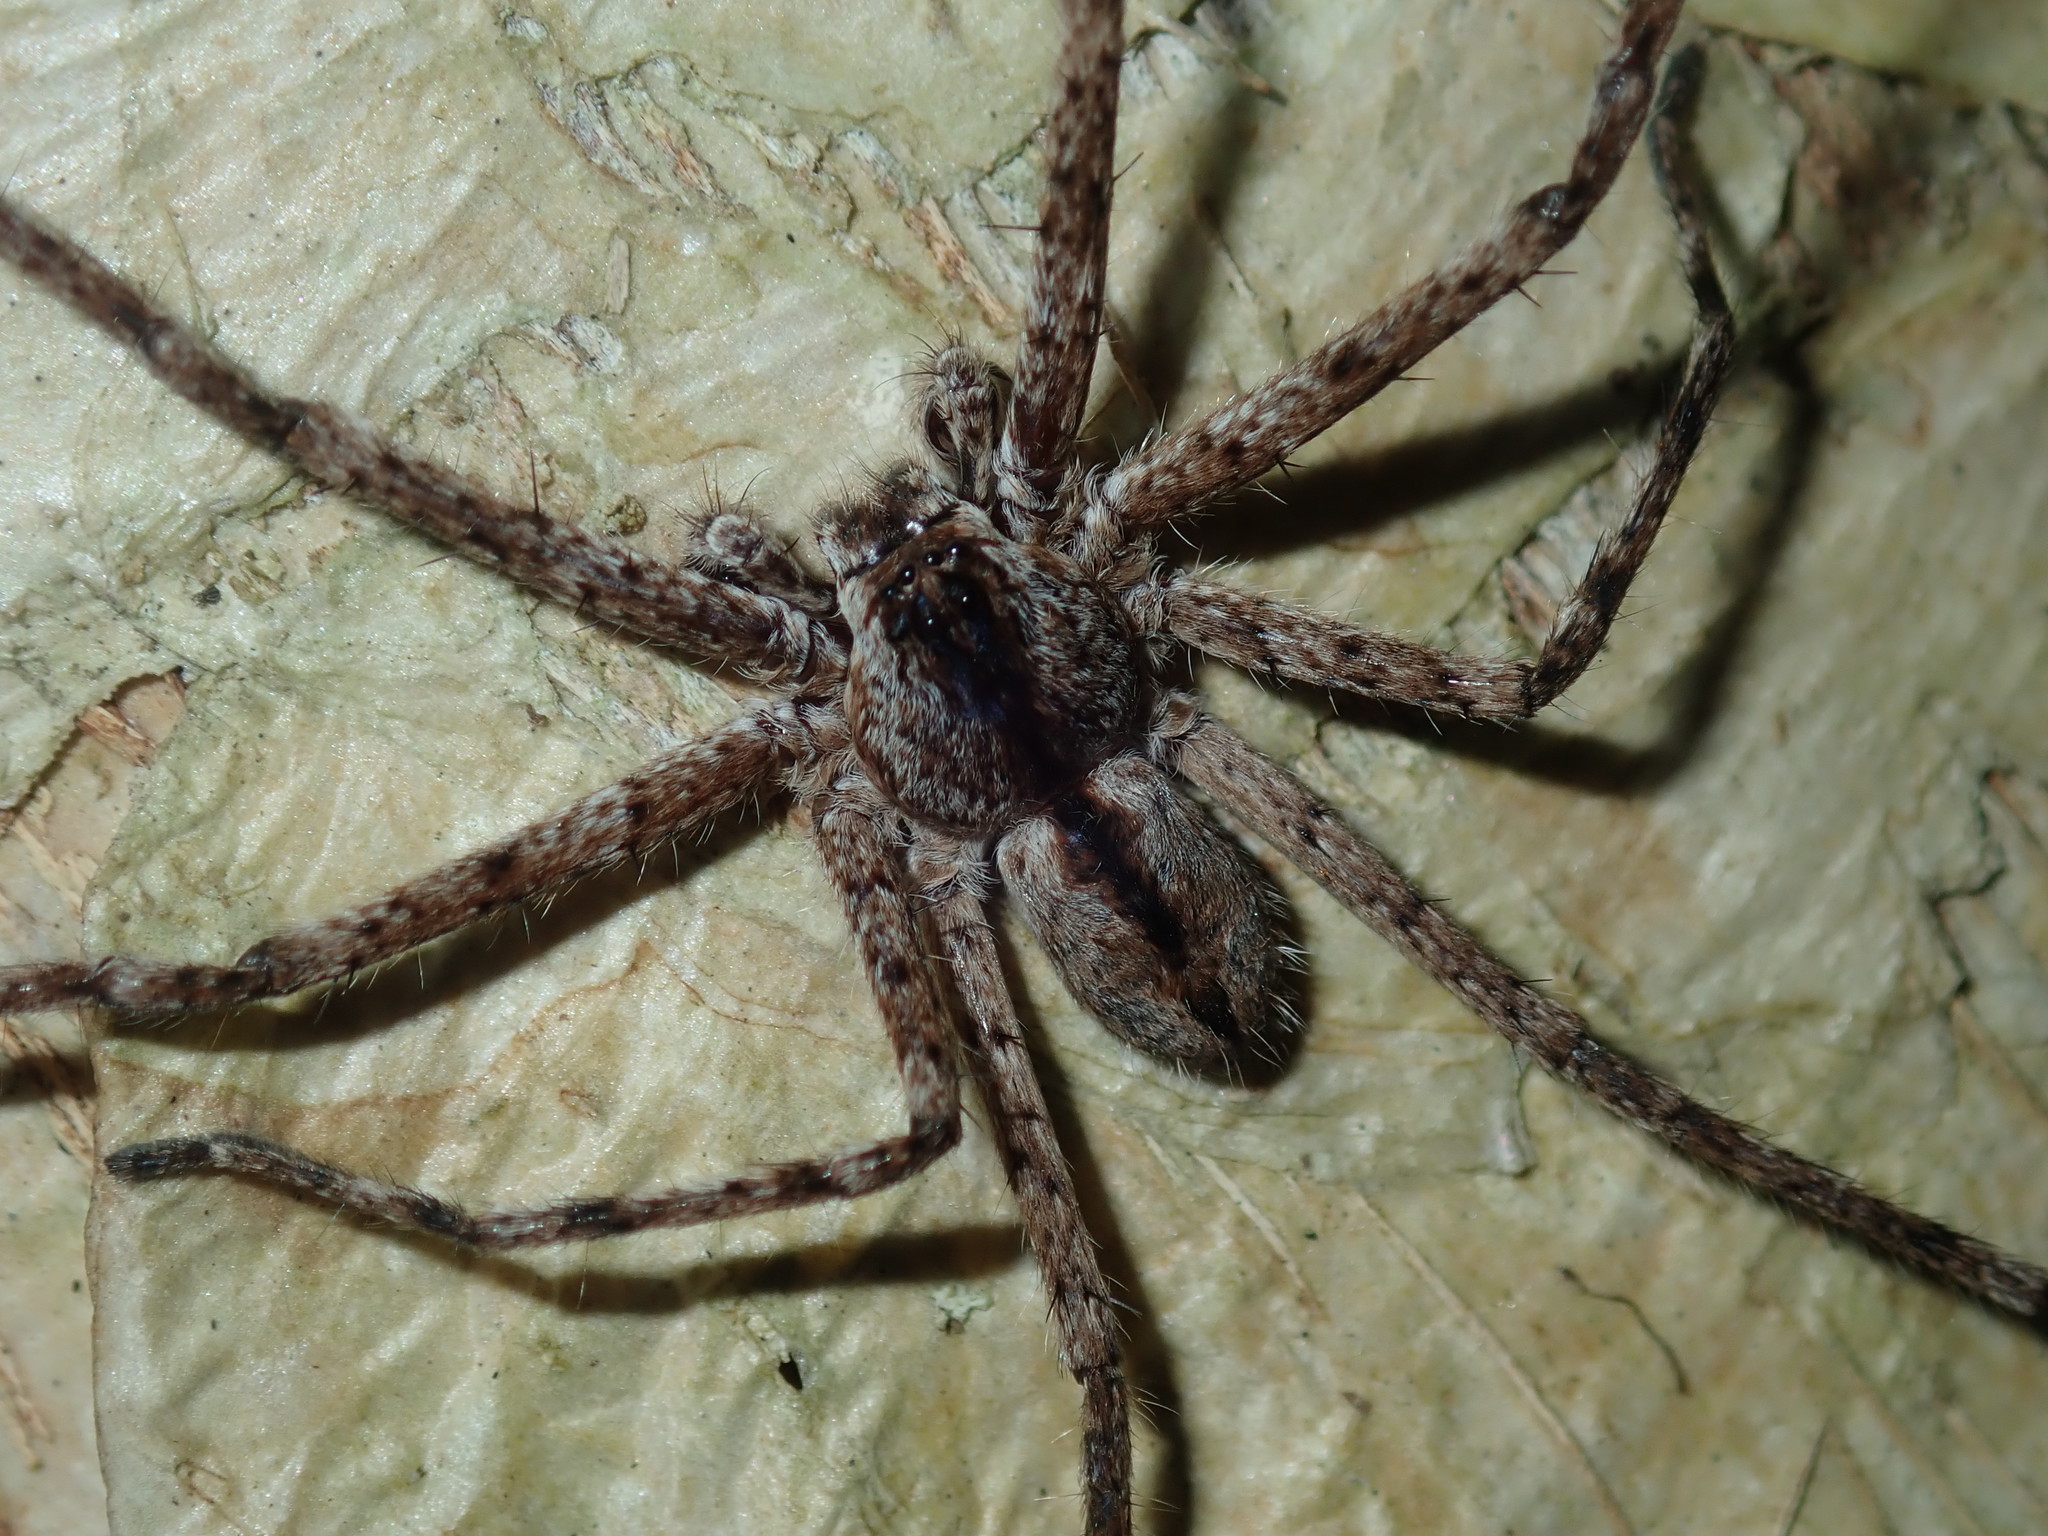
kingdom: Animalia
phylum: Arthropoda
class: Arachnida
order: Araneae
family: Sparassidae
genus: Pediana
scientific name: Pediana regina
